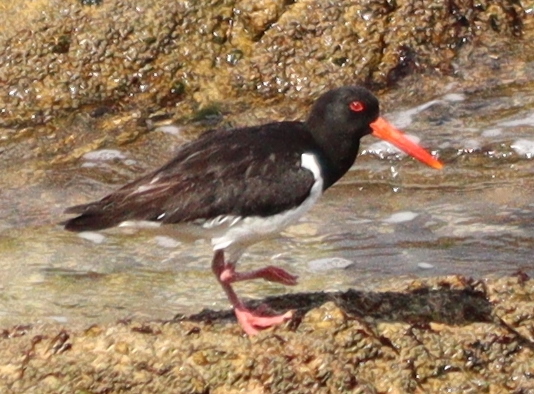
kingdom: Animalia
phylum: Chordata
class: Aves
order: Charadriiformes
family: Haematopodidae
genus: Haematopus
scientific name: Haematopus ostralegus
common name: Eurasian oystercatcher
